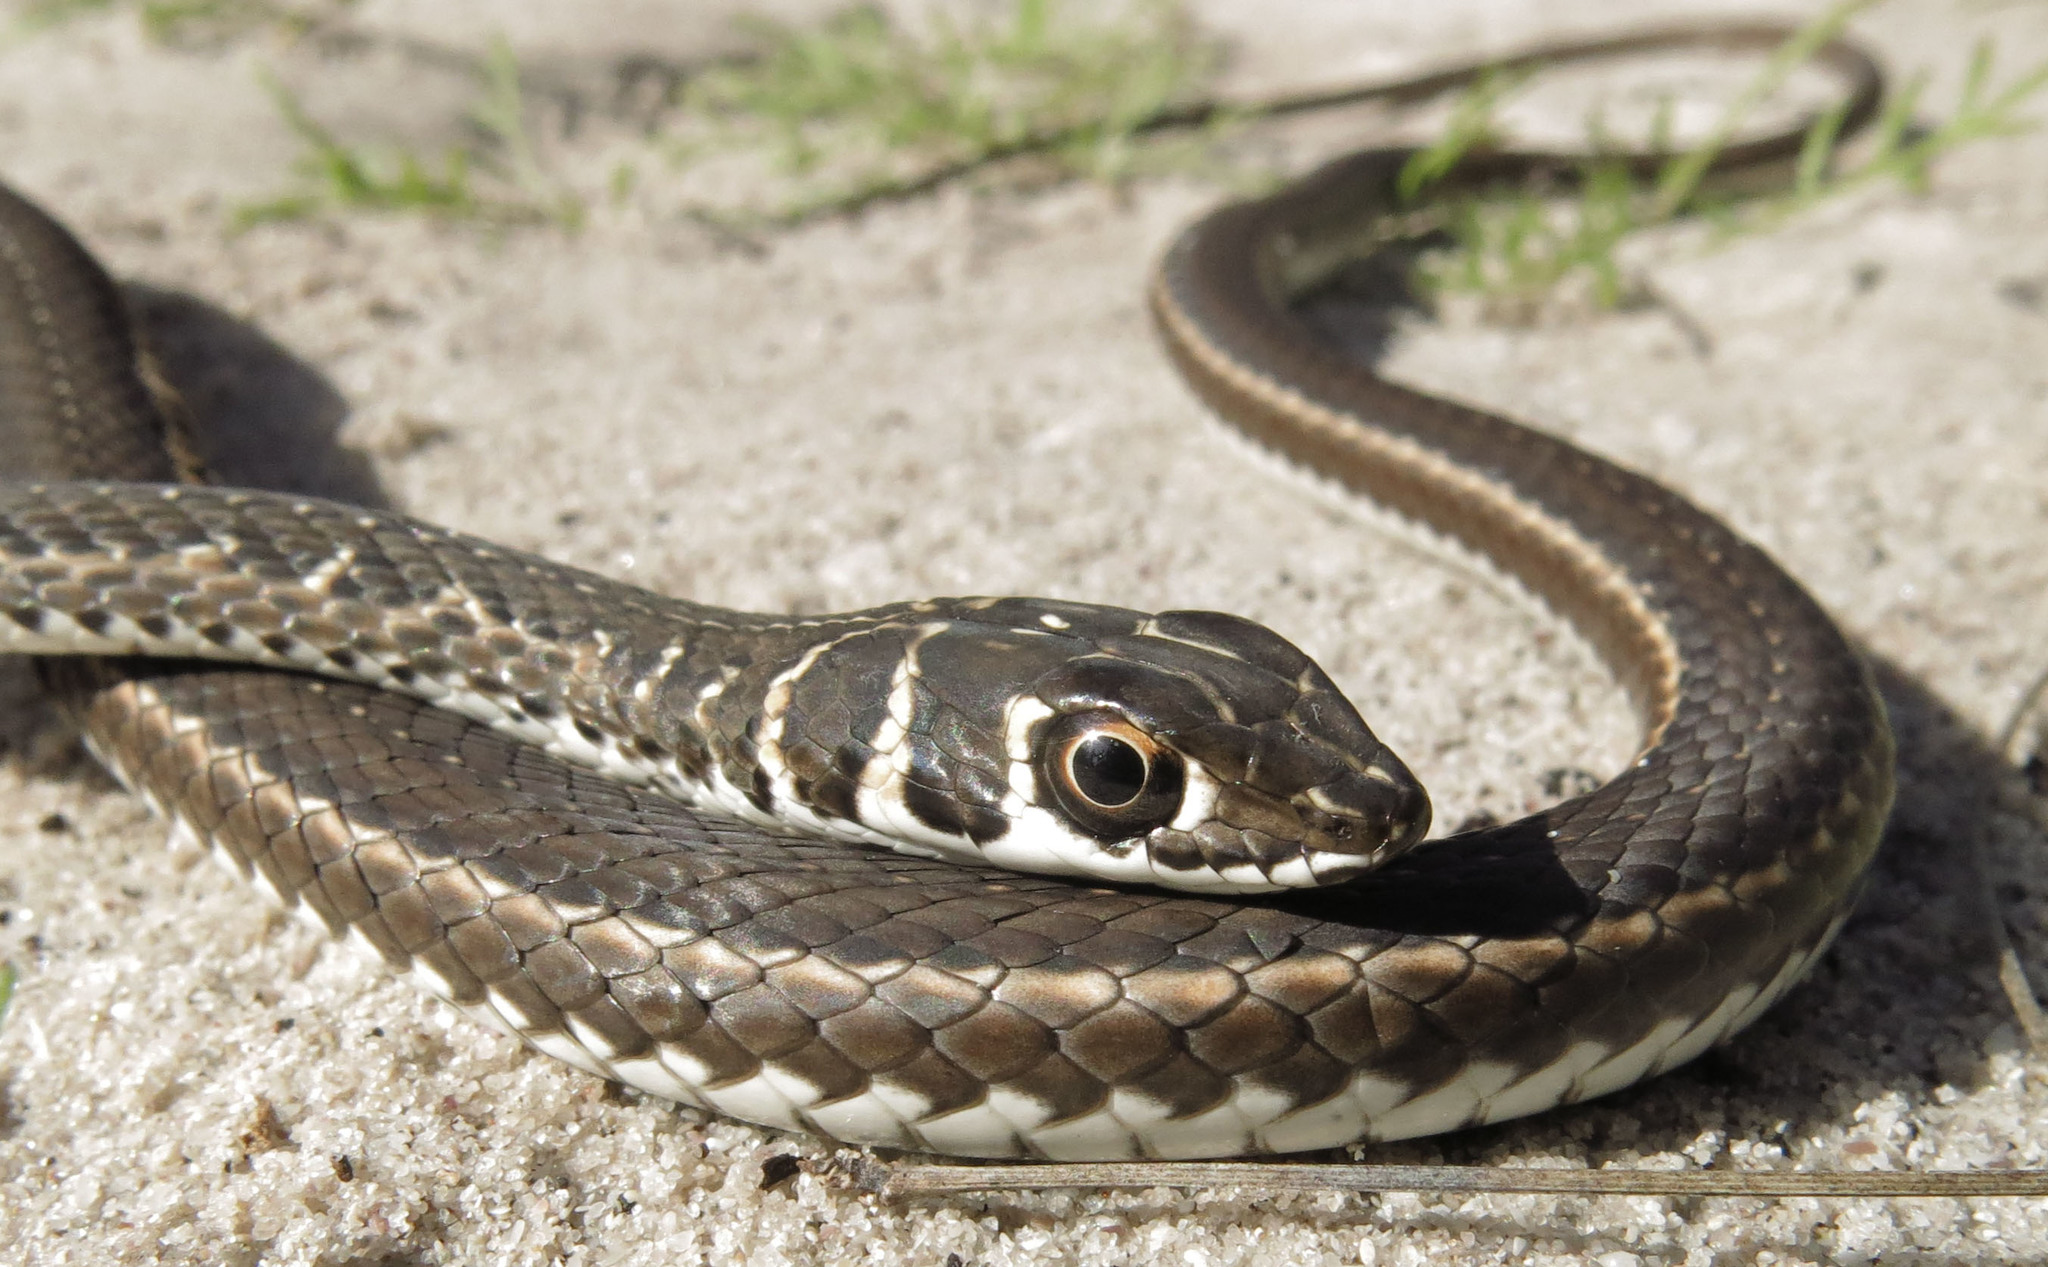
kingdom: Animalia
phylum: Chordata
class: Squamata
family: Psammophiidae
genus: Psammophis
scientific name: Psammophis leightoni
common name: Cape sand snake
